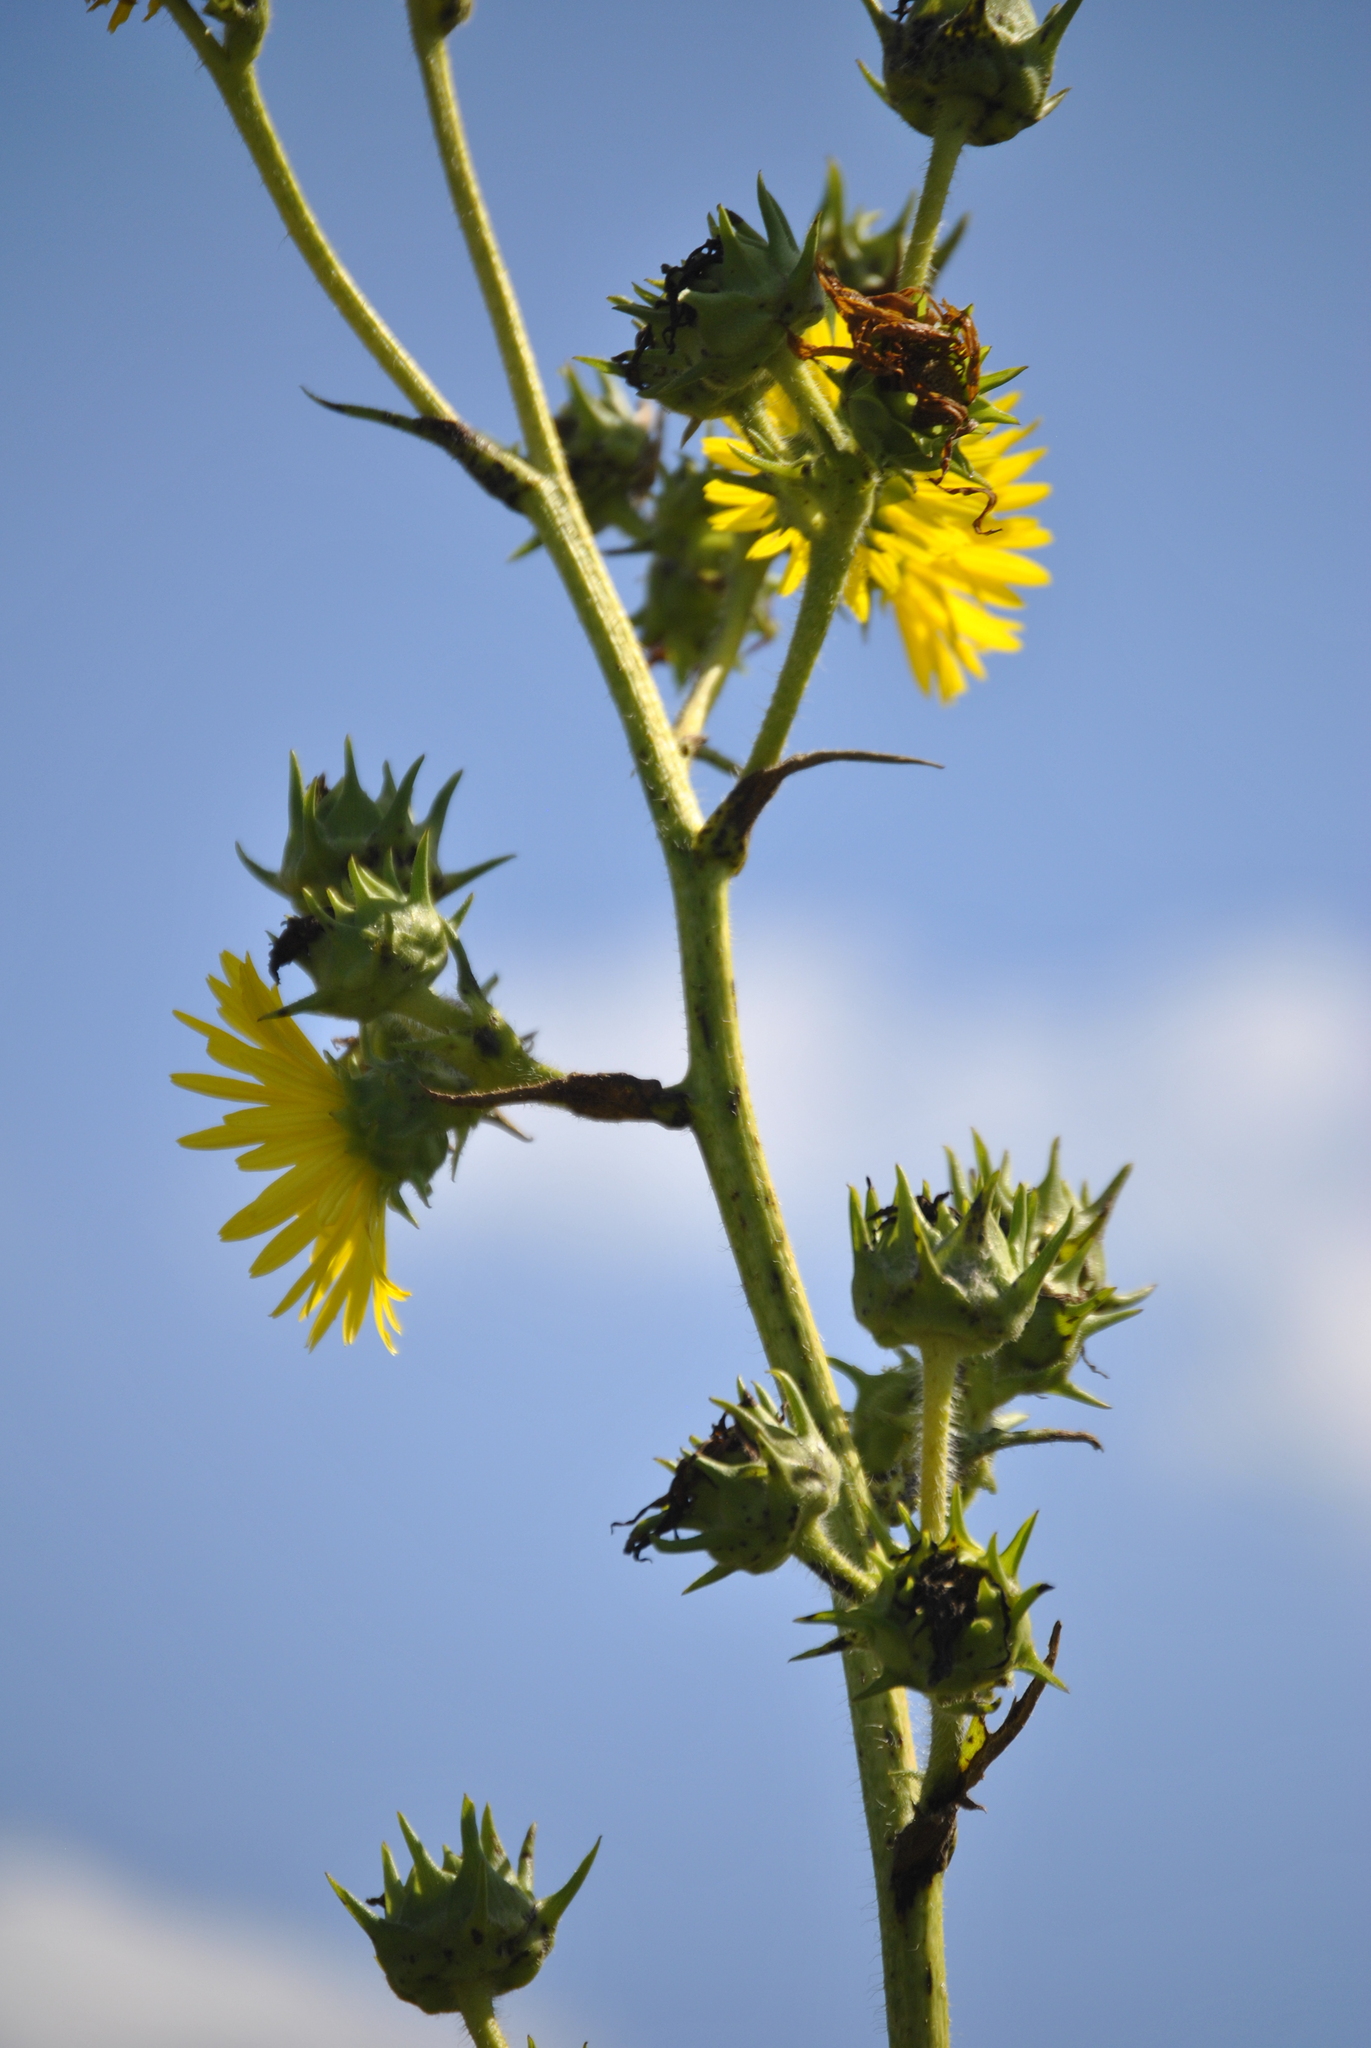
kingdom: Plantae
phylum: Tracheophyta
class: Magnoliopsida
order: Asterales
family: Asteraceae
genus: Silphium
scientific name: Silphium laciniatum
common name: Polarplant
